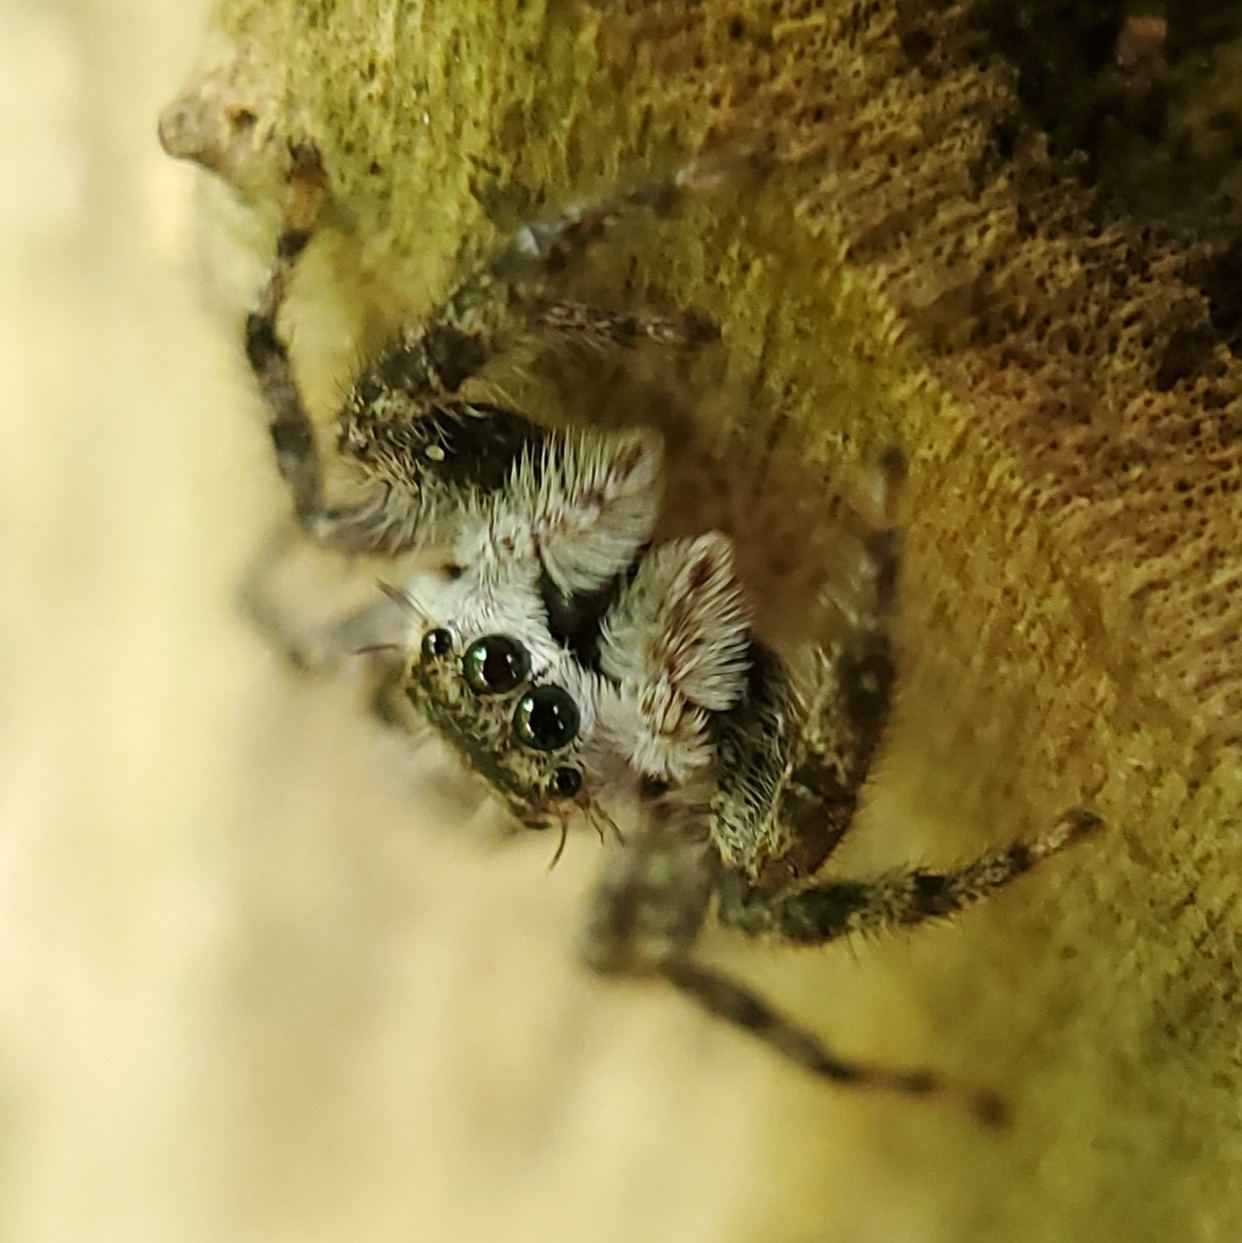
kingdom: Animalia
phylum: Arthropoda
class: Arachnida
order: Araneae
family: Salticidae
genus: Platycryptus
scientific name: Platycryptus undatus
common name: Tan jumping spider
